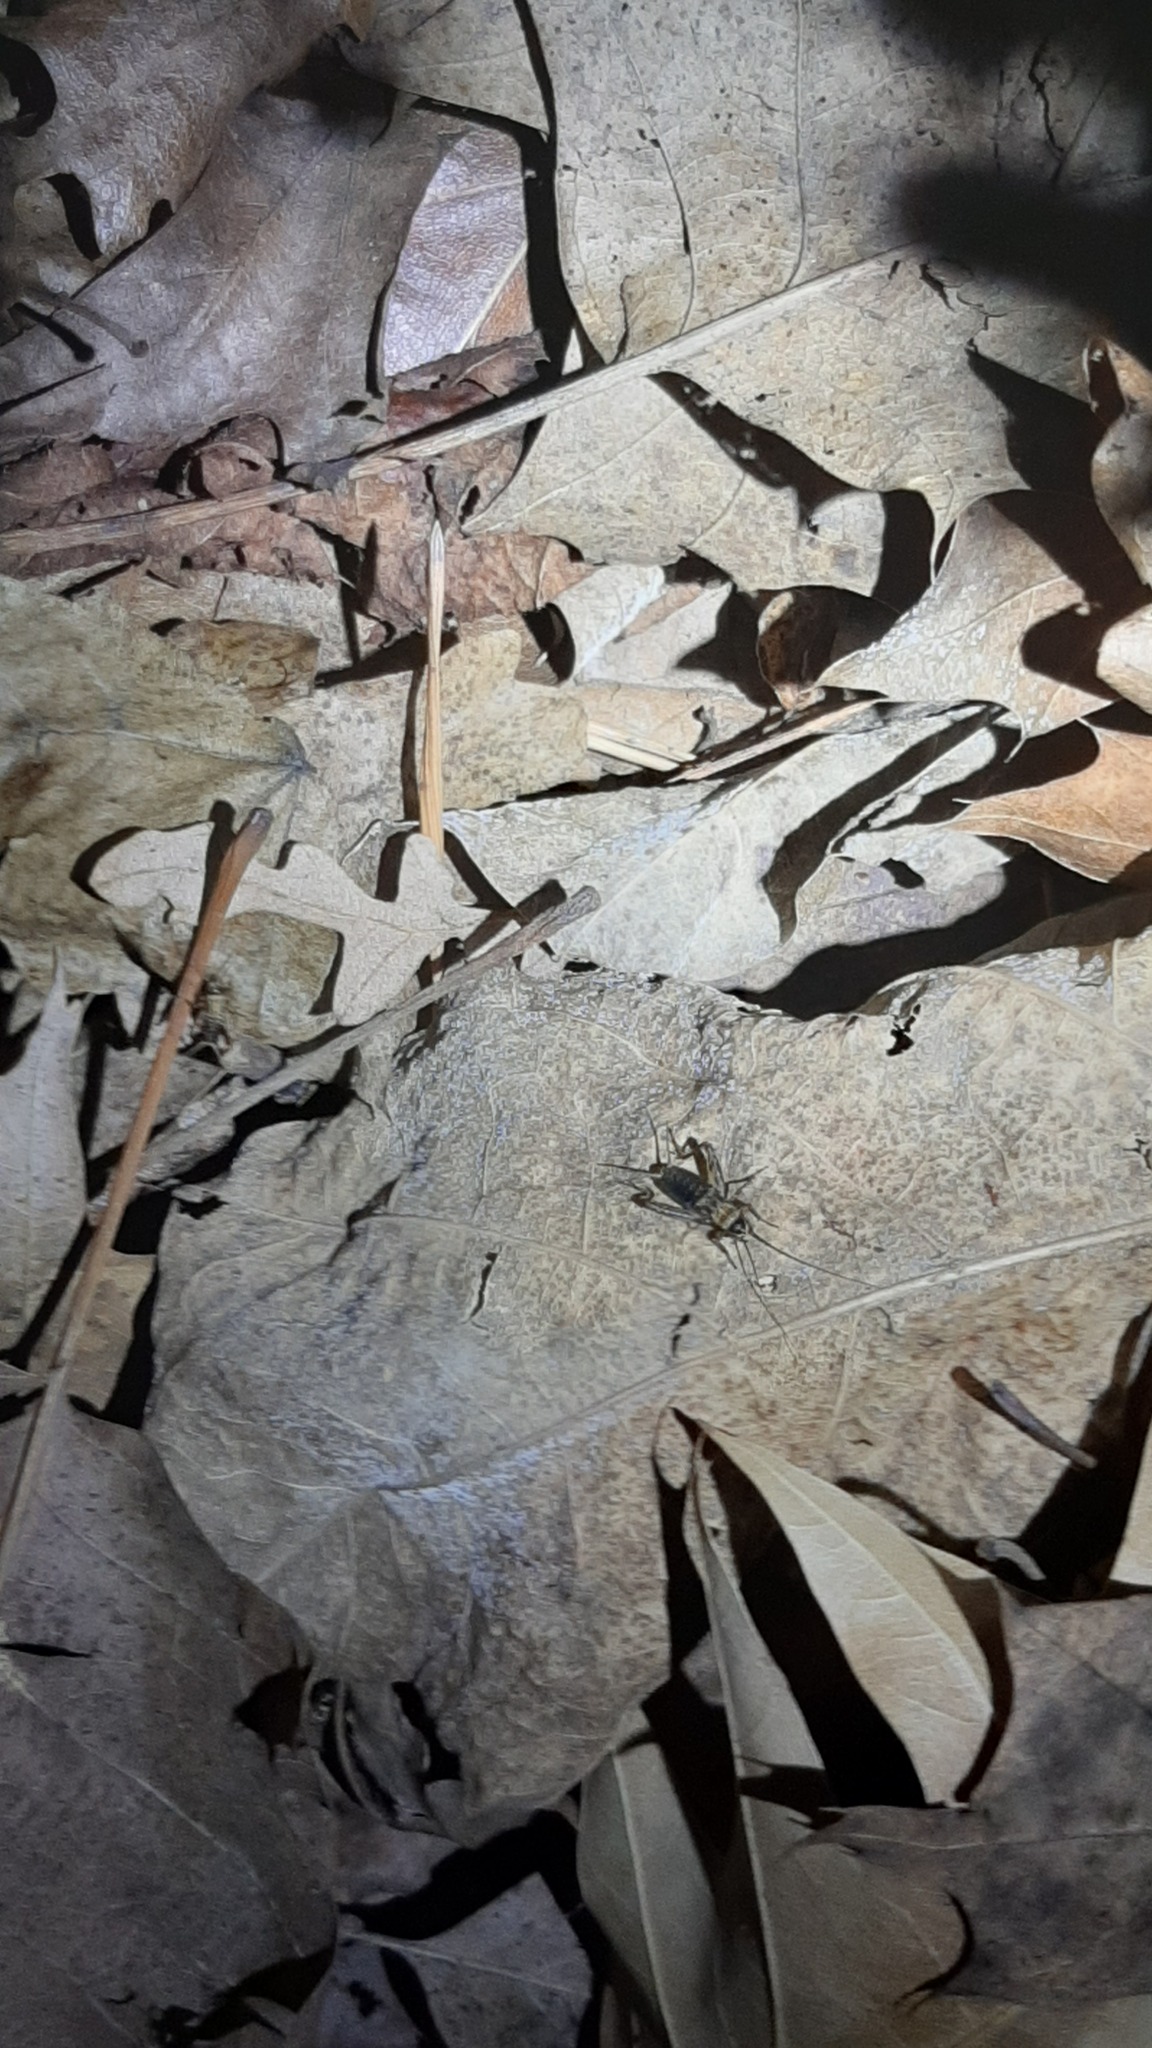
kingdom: Animalia
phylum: Arthropoda
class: Insecta
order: Orthoptera
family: Trigonidiidae
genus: Nemobius
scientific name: Nemobius sylvestris
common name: Wood-cricket
